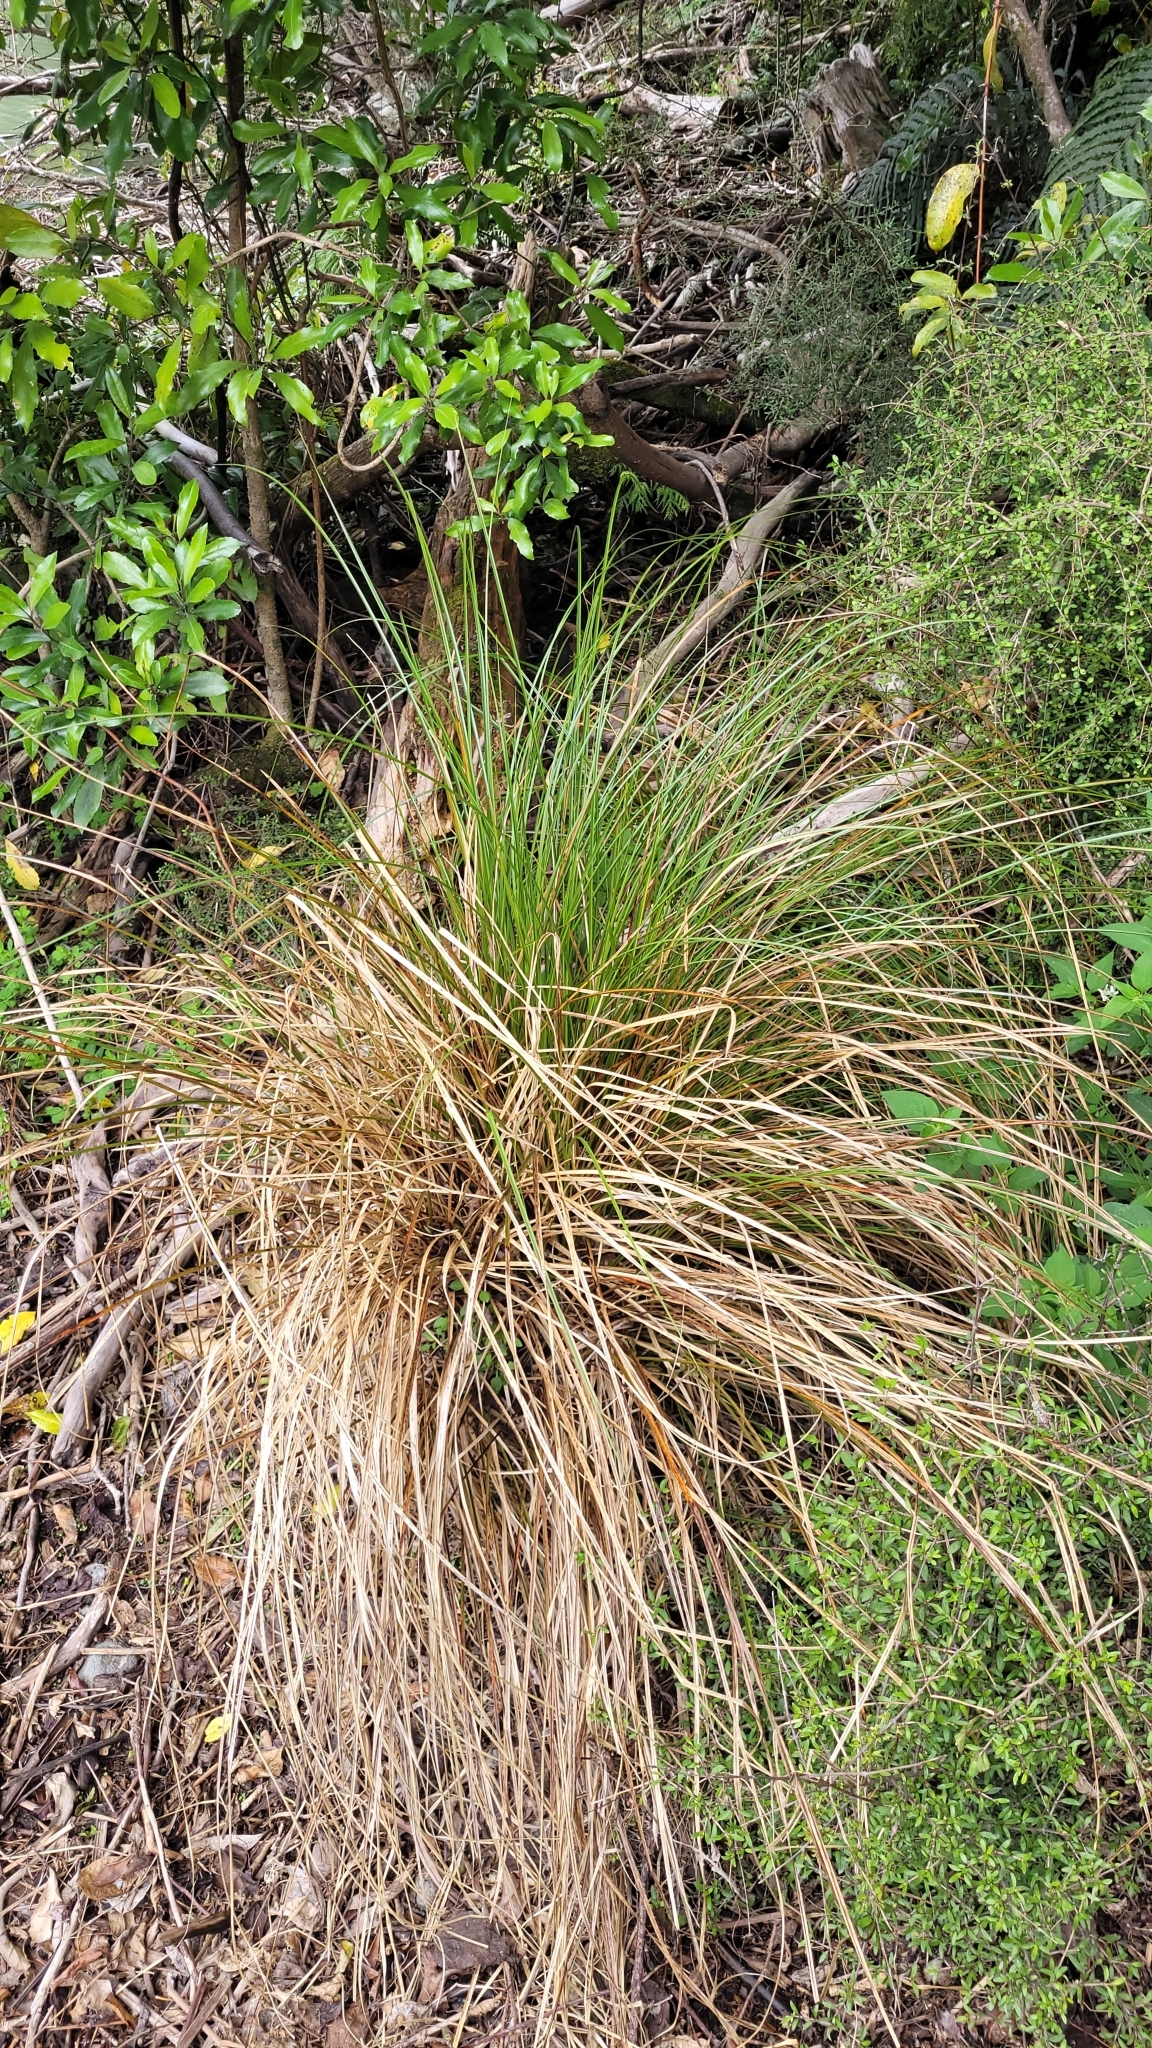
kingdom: Plantae
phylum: Tracheophyta
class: Liliopsida
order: Poales
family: Cyperaceae
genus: Carex
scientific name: Carex secta
